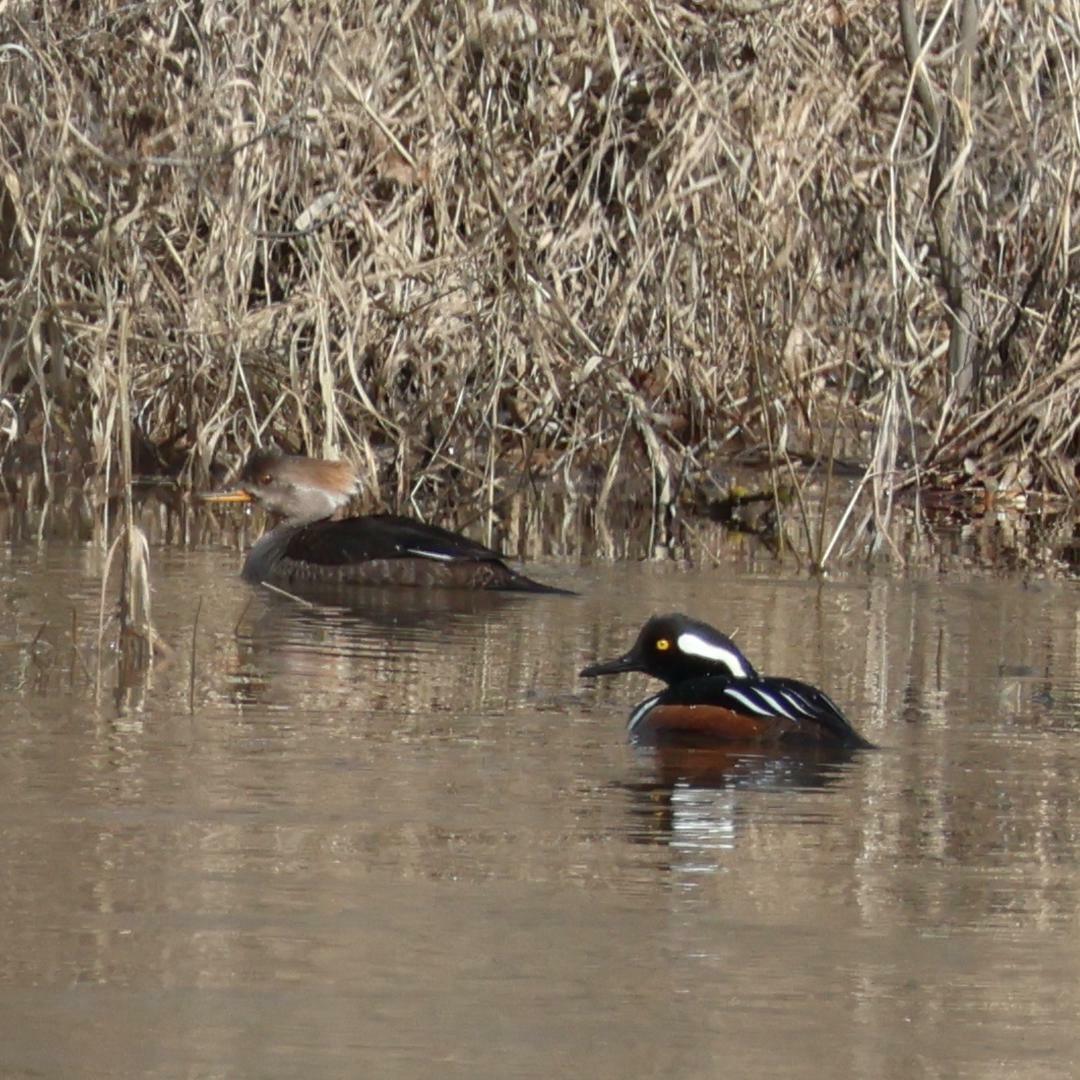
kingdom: Animalia
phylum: Chordata
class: Aves
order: Anseriformes
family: Anatidae
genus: Lophodytes
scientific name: Lophodytes cucullatus
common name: Hooded merganser
